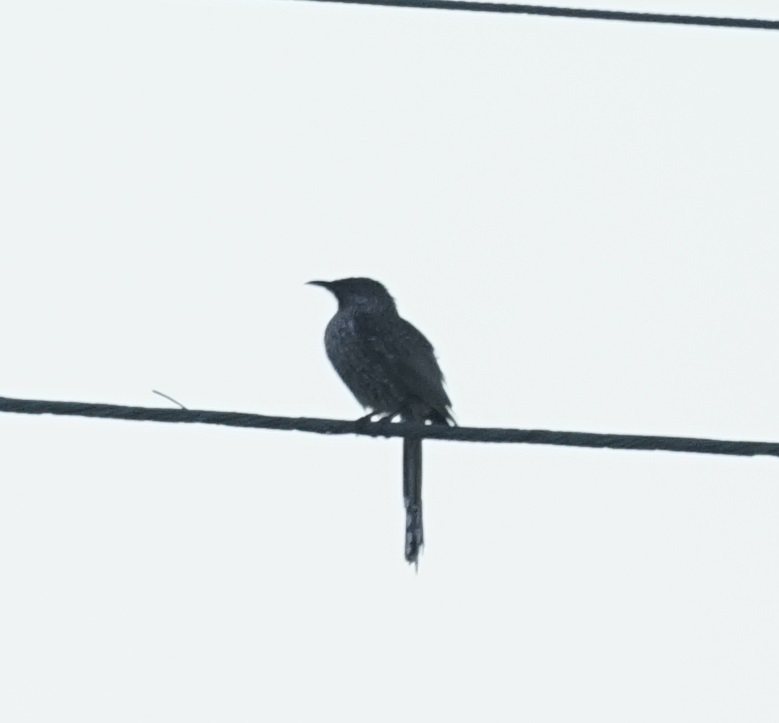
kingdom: Animalia
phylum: Chordata
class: Aves
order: Passeriformes
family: Meliphagidae
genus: Anthochaera
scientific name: Anthochaera chrysoptera
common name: Little wattlebird
